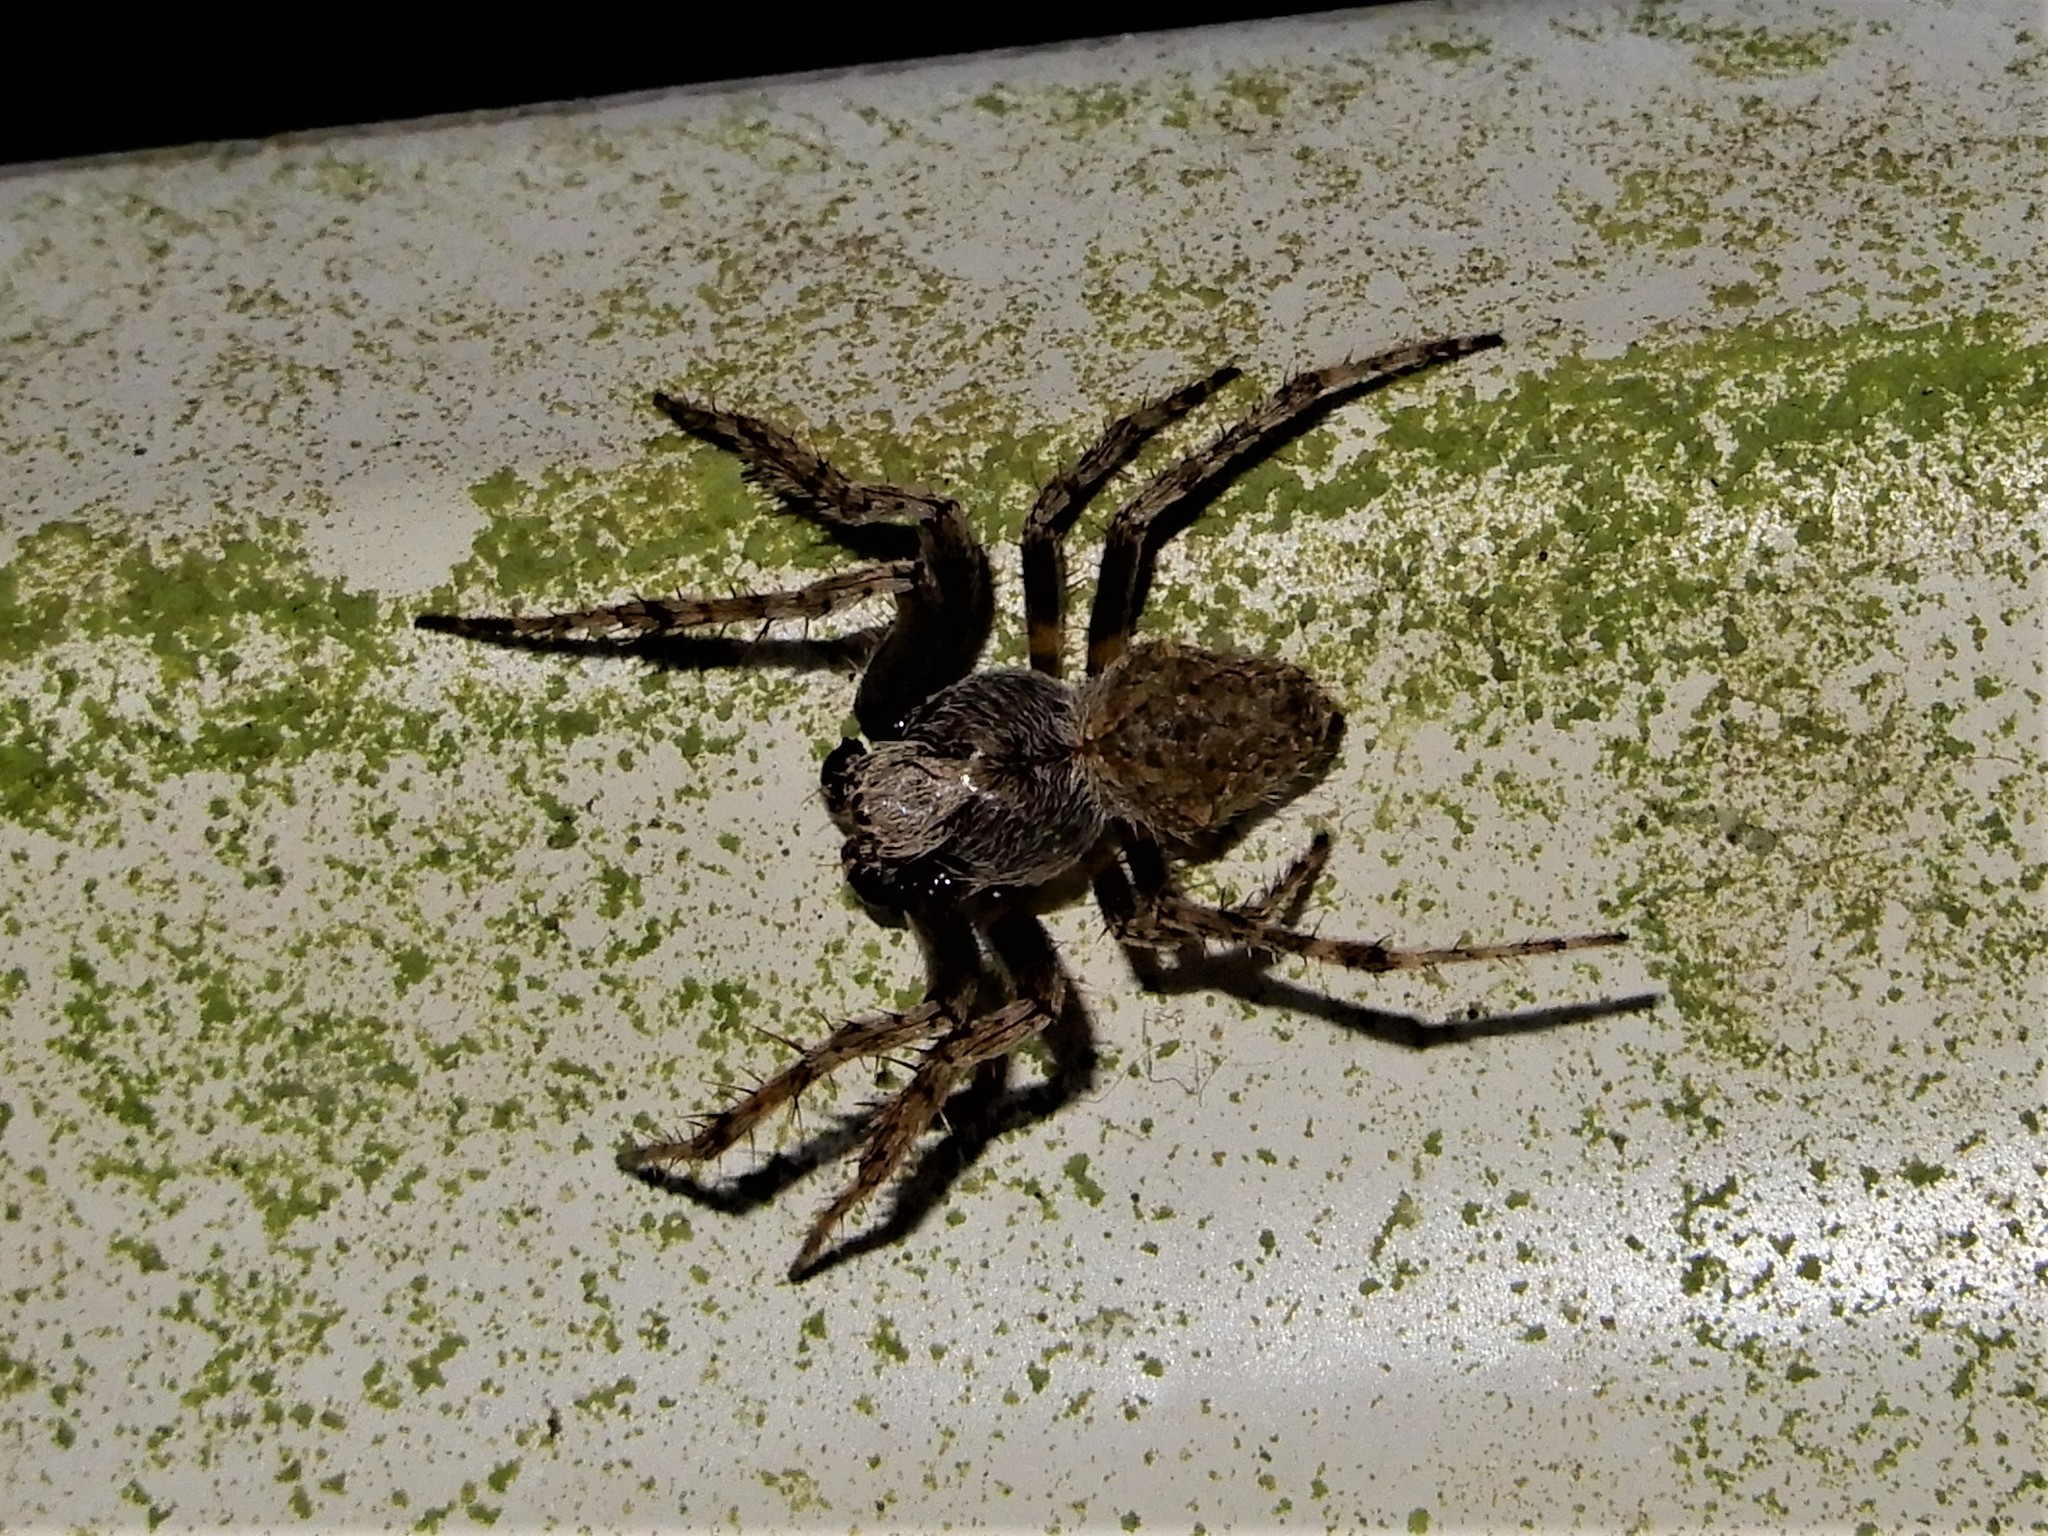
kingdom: Animalia
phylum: Arthropoda
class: Arachnida
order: Araneae
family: Araneidae
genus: Eriophora
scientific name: Eriophora pustulosa
